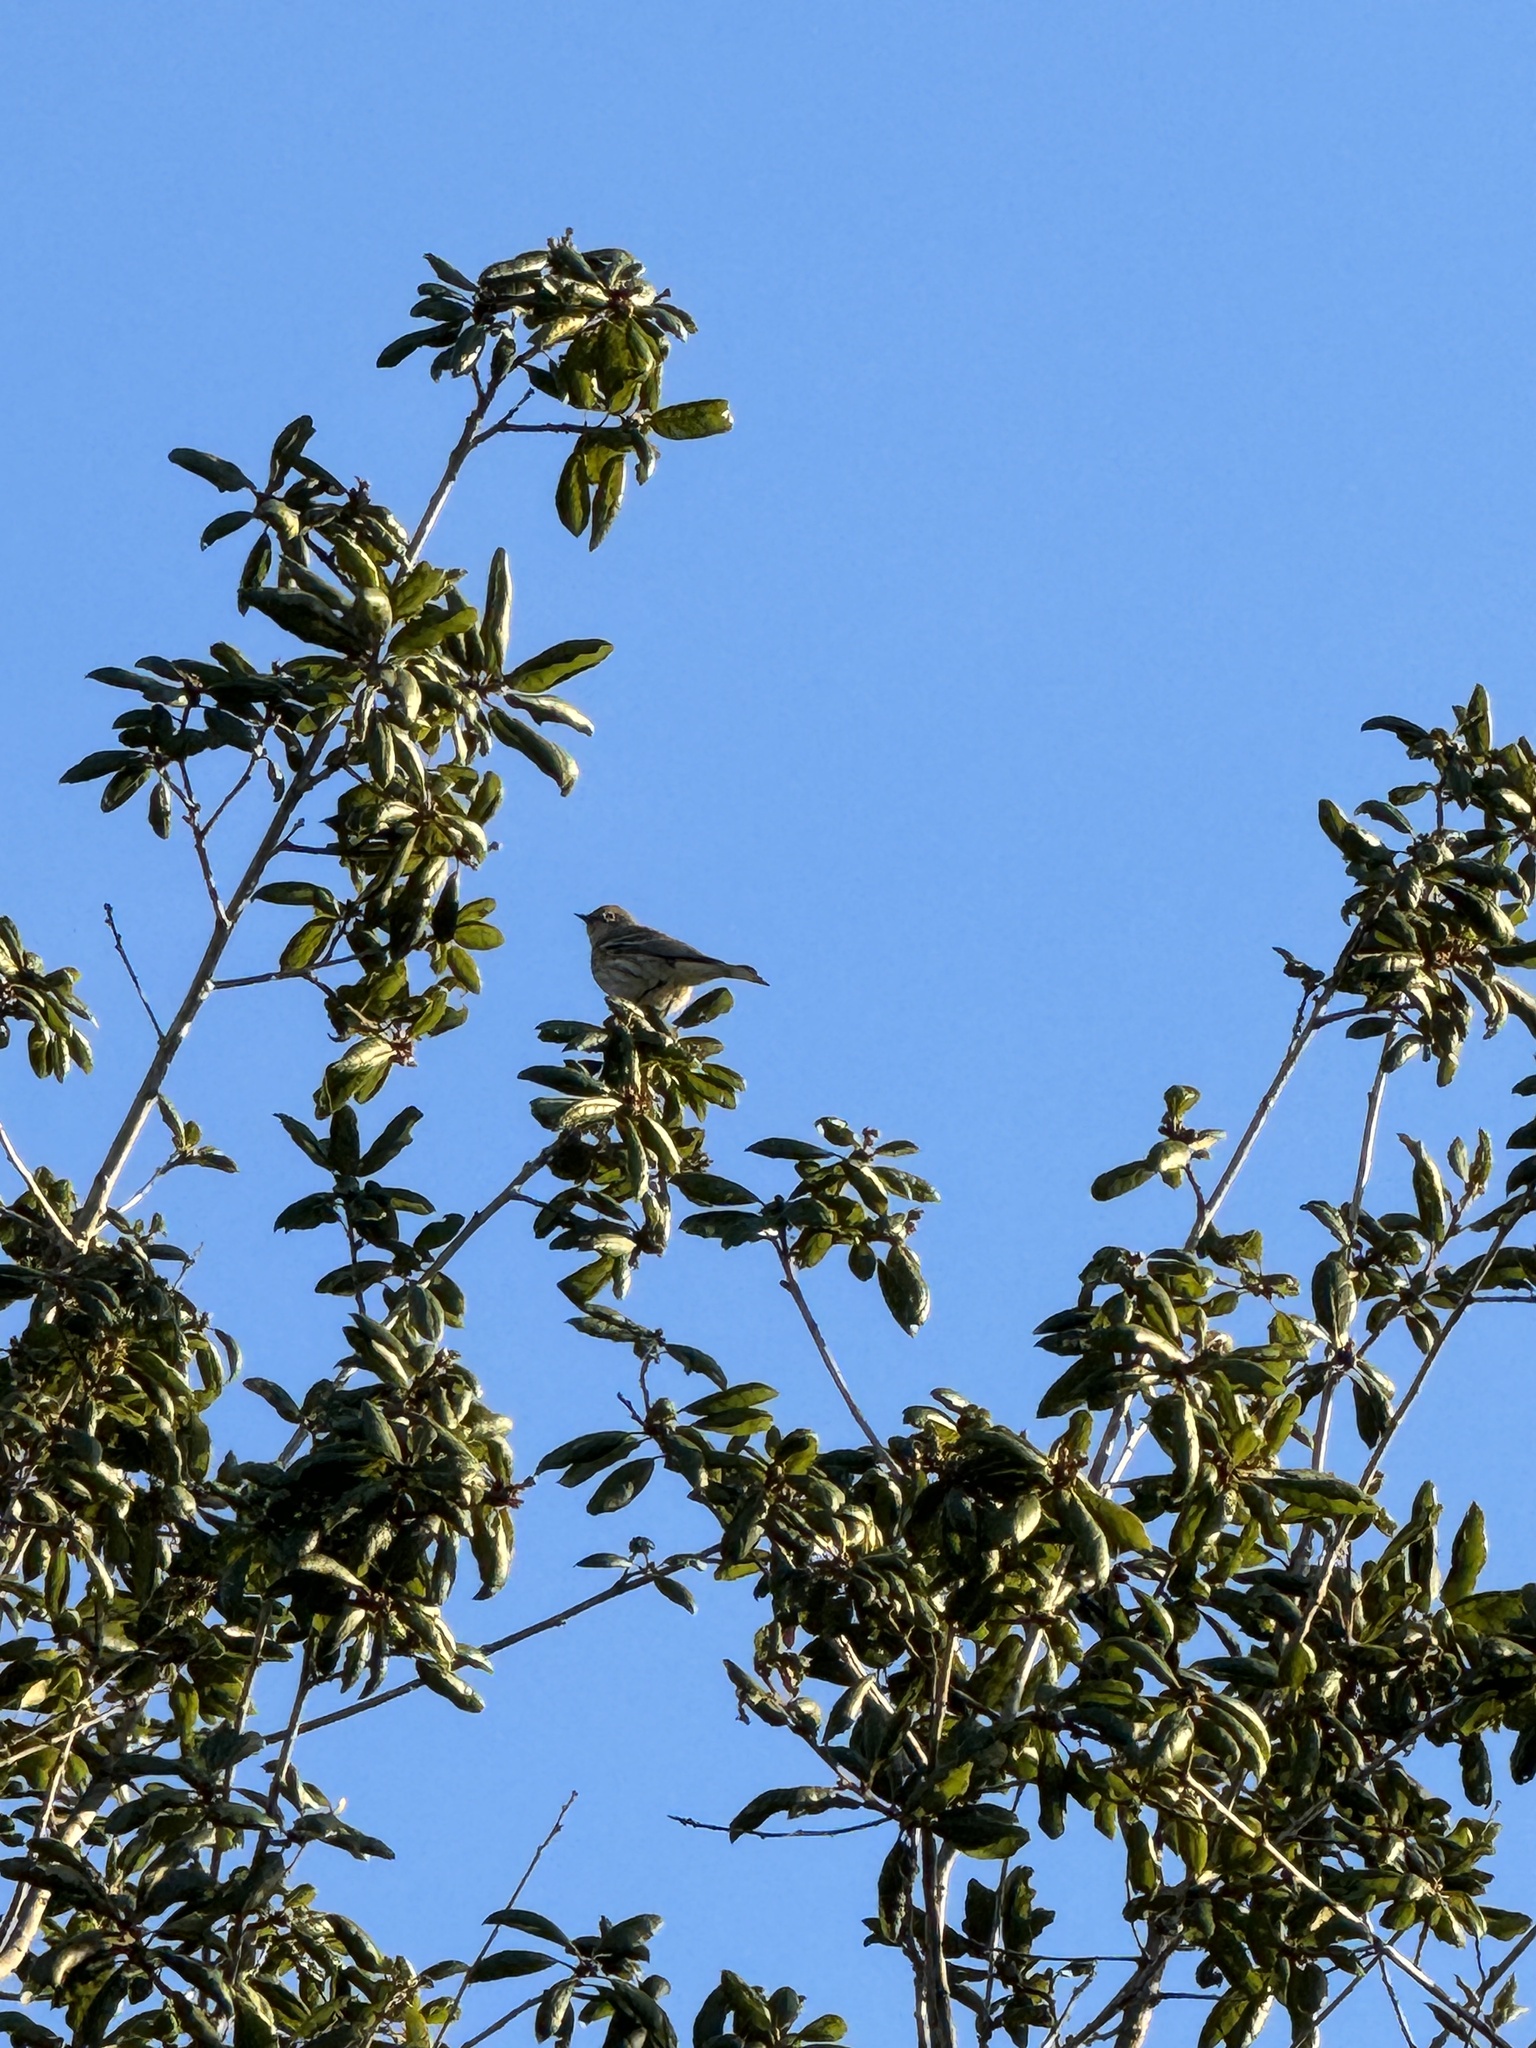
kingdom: Animalia
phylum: Chordata
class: Aves
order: Passeriformes
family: Parulidae
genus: Setophaga
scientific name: Setophaga coronata
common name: Myrtle warbler
